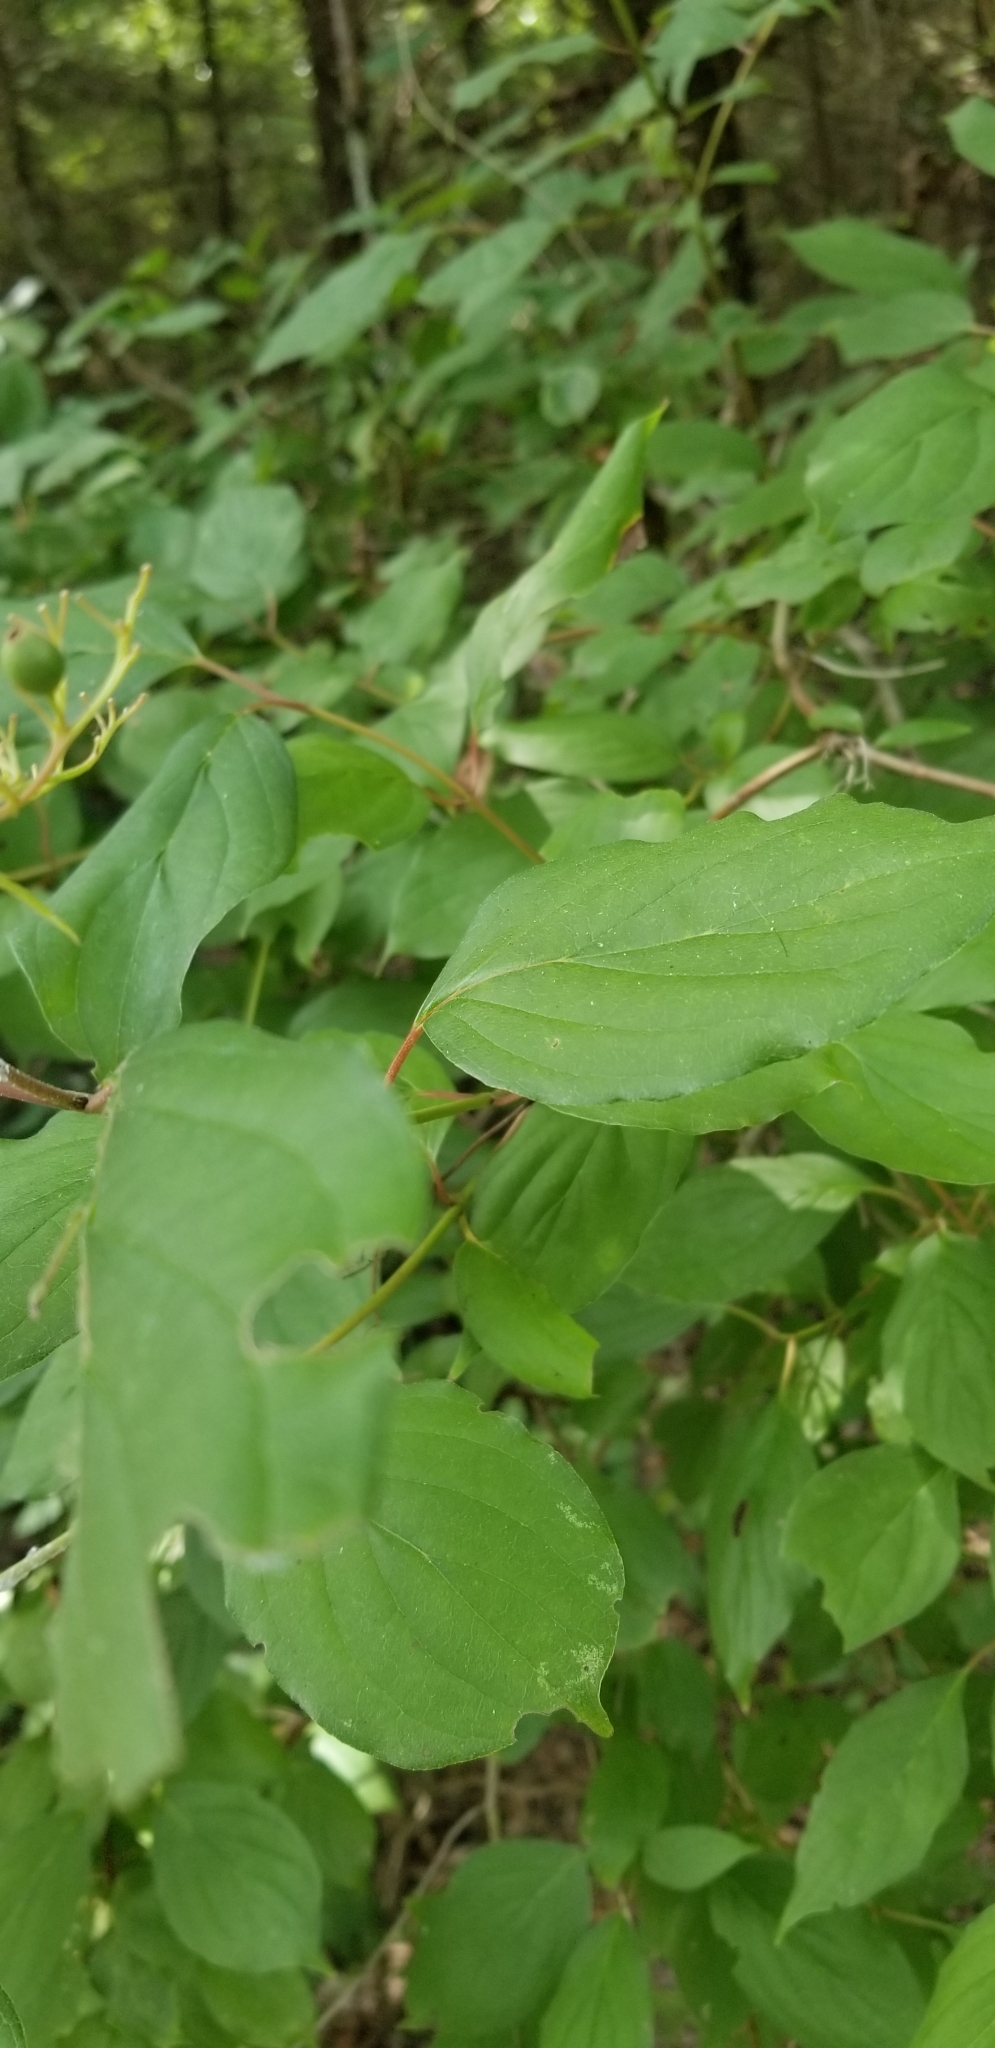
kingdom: Plantae
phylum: Tracheophyta
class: Magnoliopsida
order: Cornales
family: Cornaceae
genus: Cornus
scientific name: Cornus drummondii
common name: Rough-leaf dogwood
